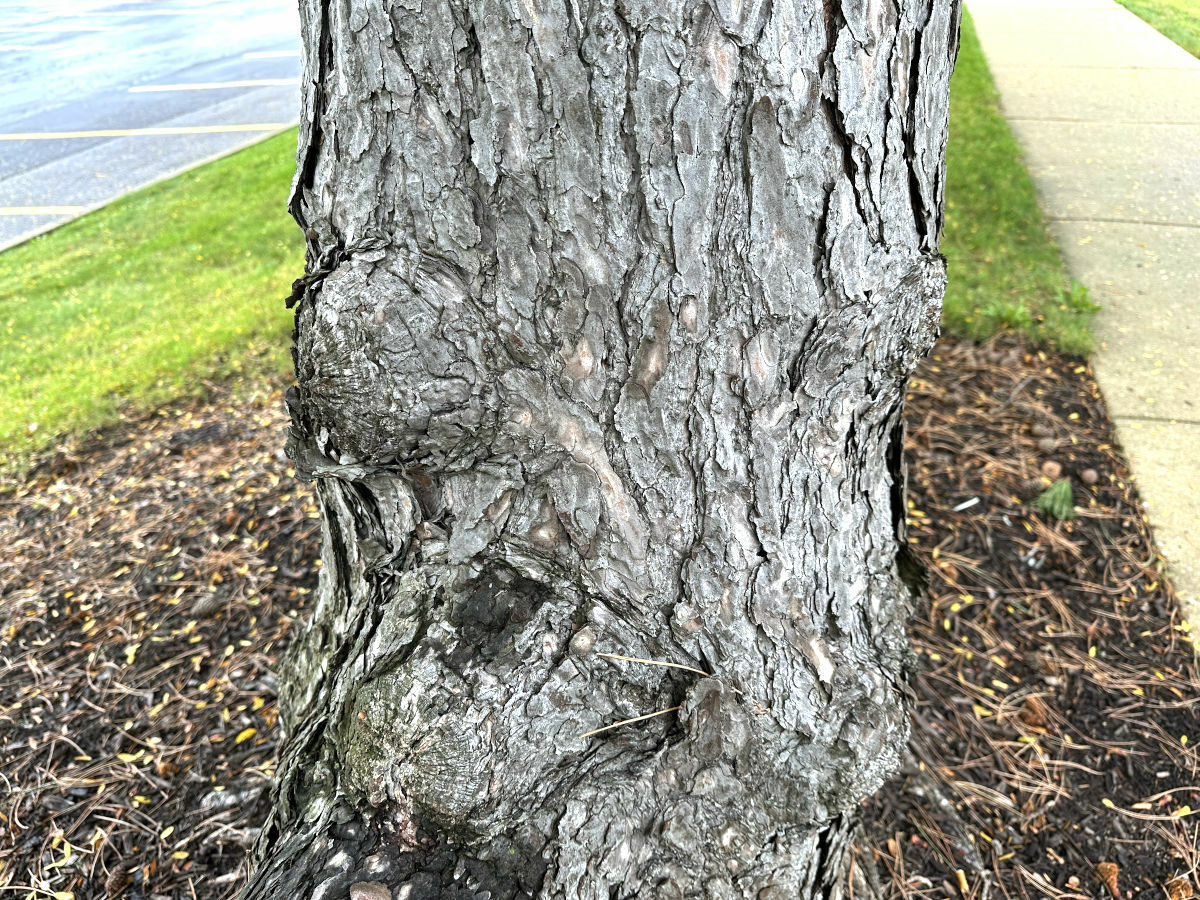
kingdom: Plantae
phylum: Tracheophyta
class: Pinopsida
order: Pinales
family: Pinaceae
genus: Pinus
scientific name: Pinus resinosa
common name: Norway pine
